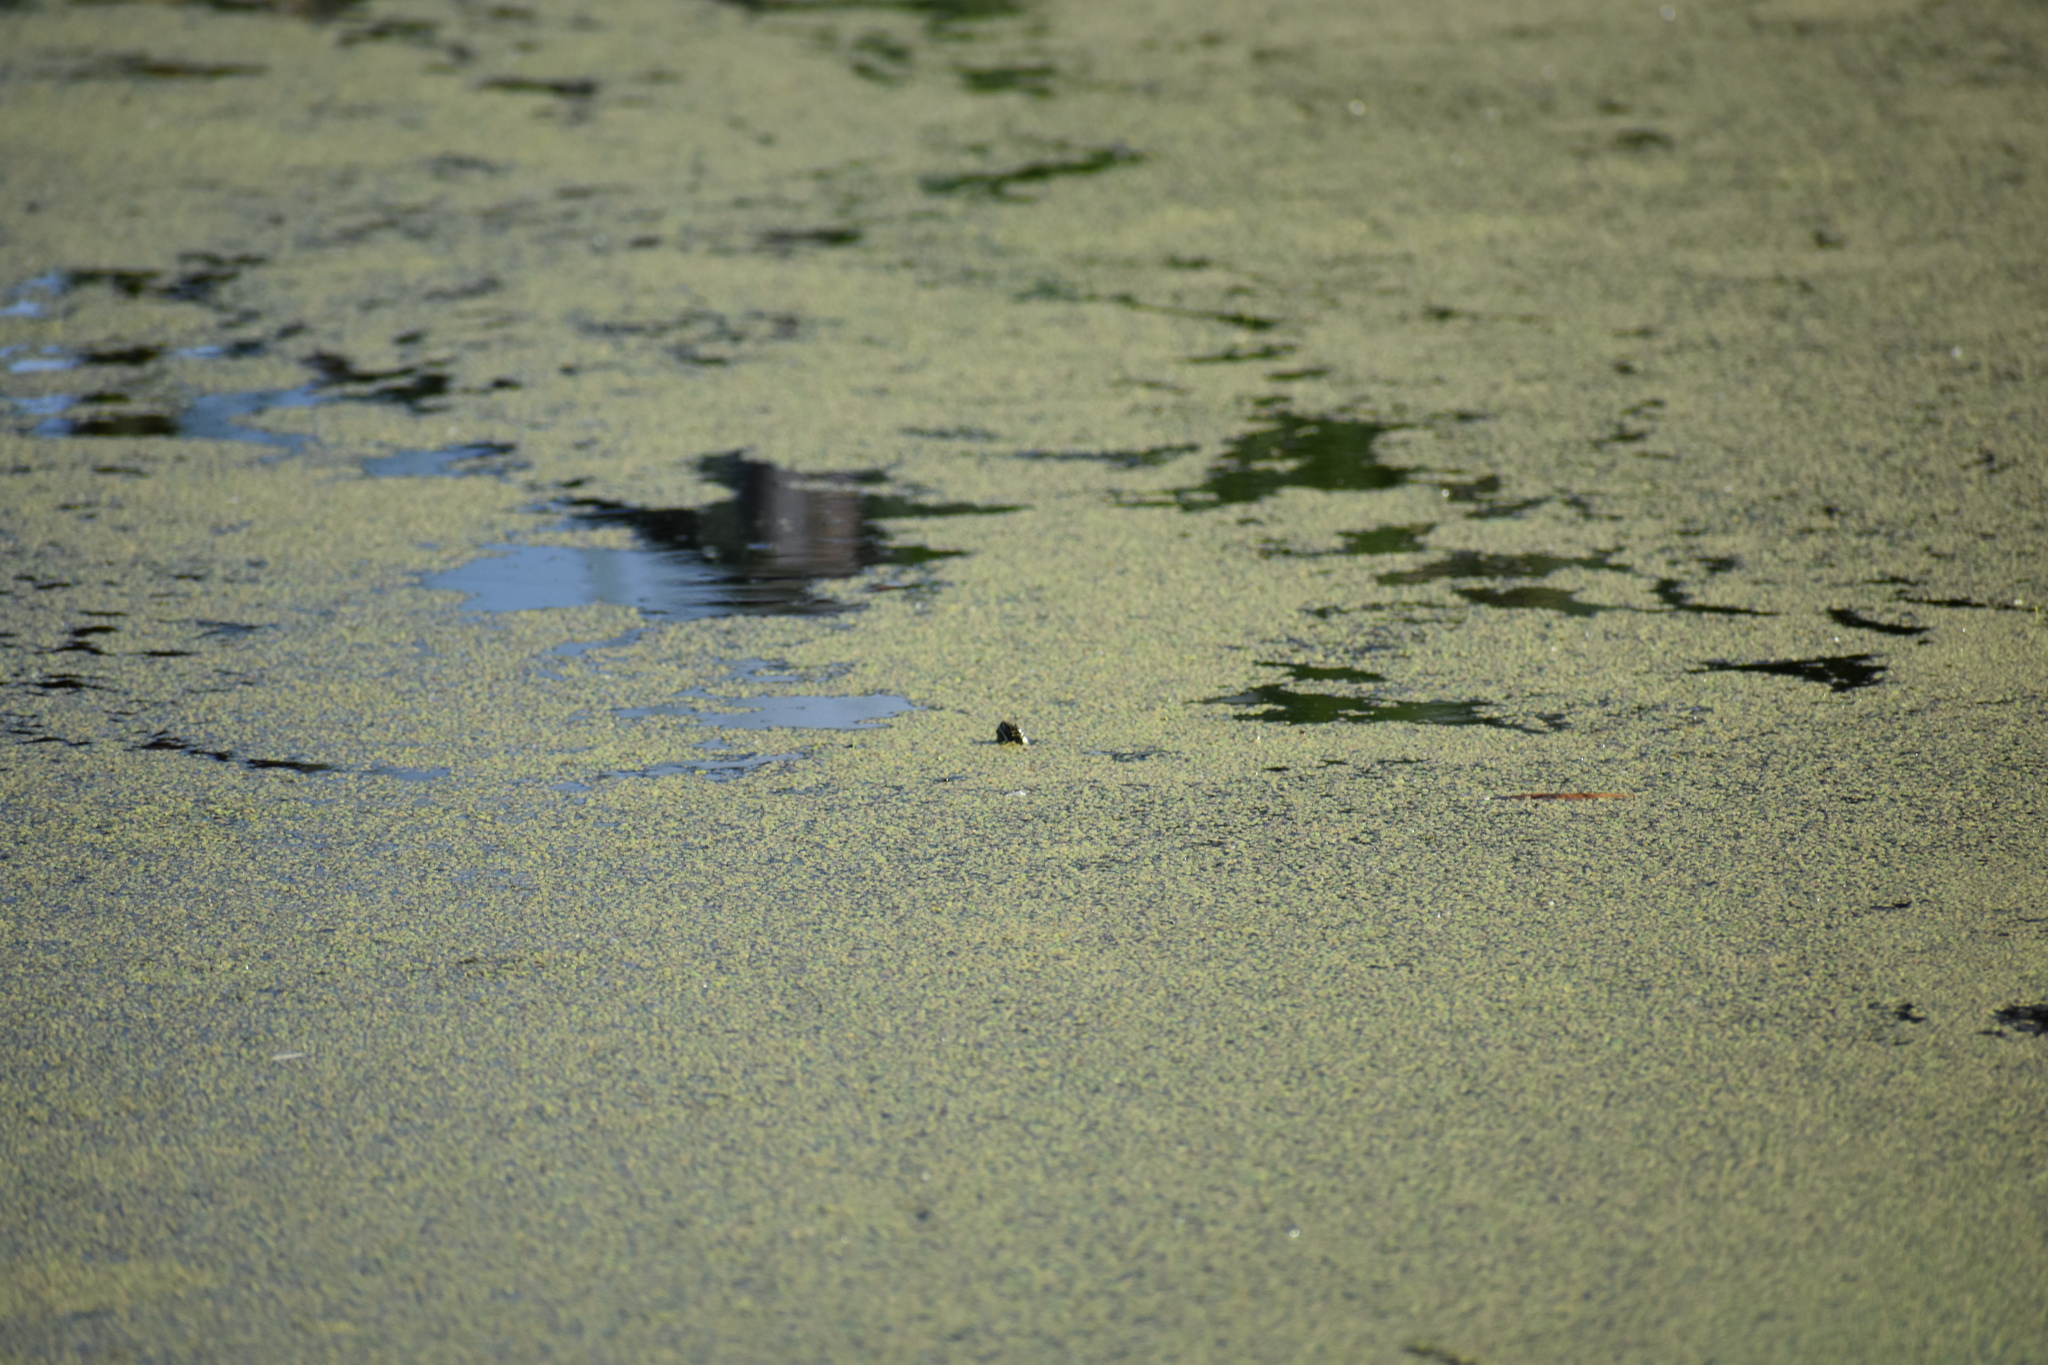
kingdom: Animalia
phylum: Chordata
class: Testudines
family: Emydidae
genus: Chrysemys
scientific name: Chrysemys picta
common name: Painted turtle
